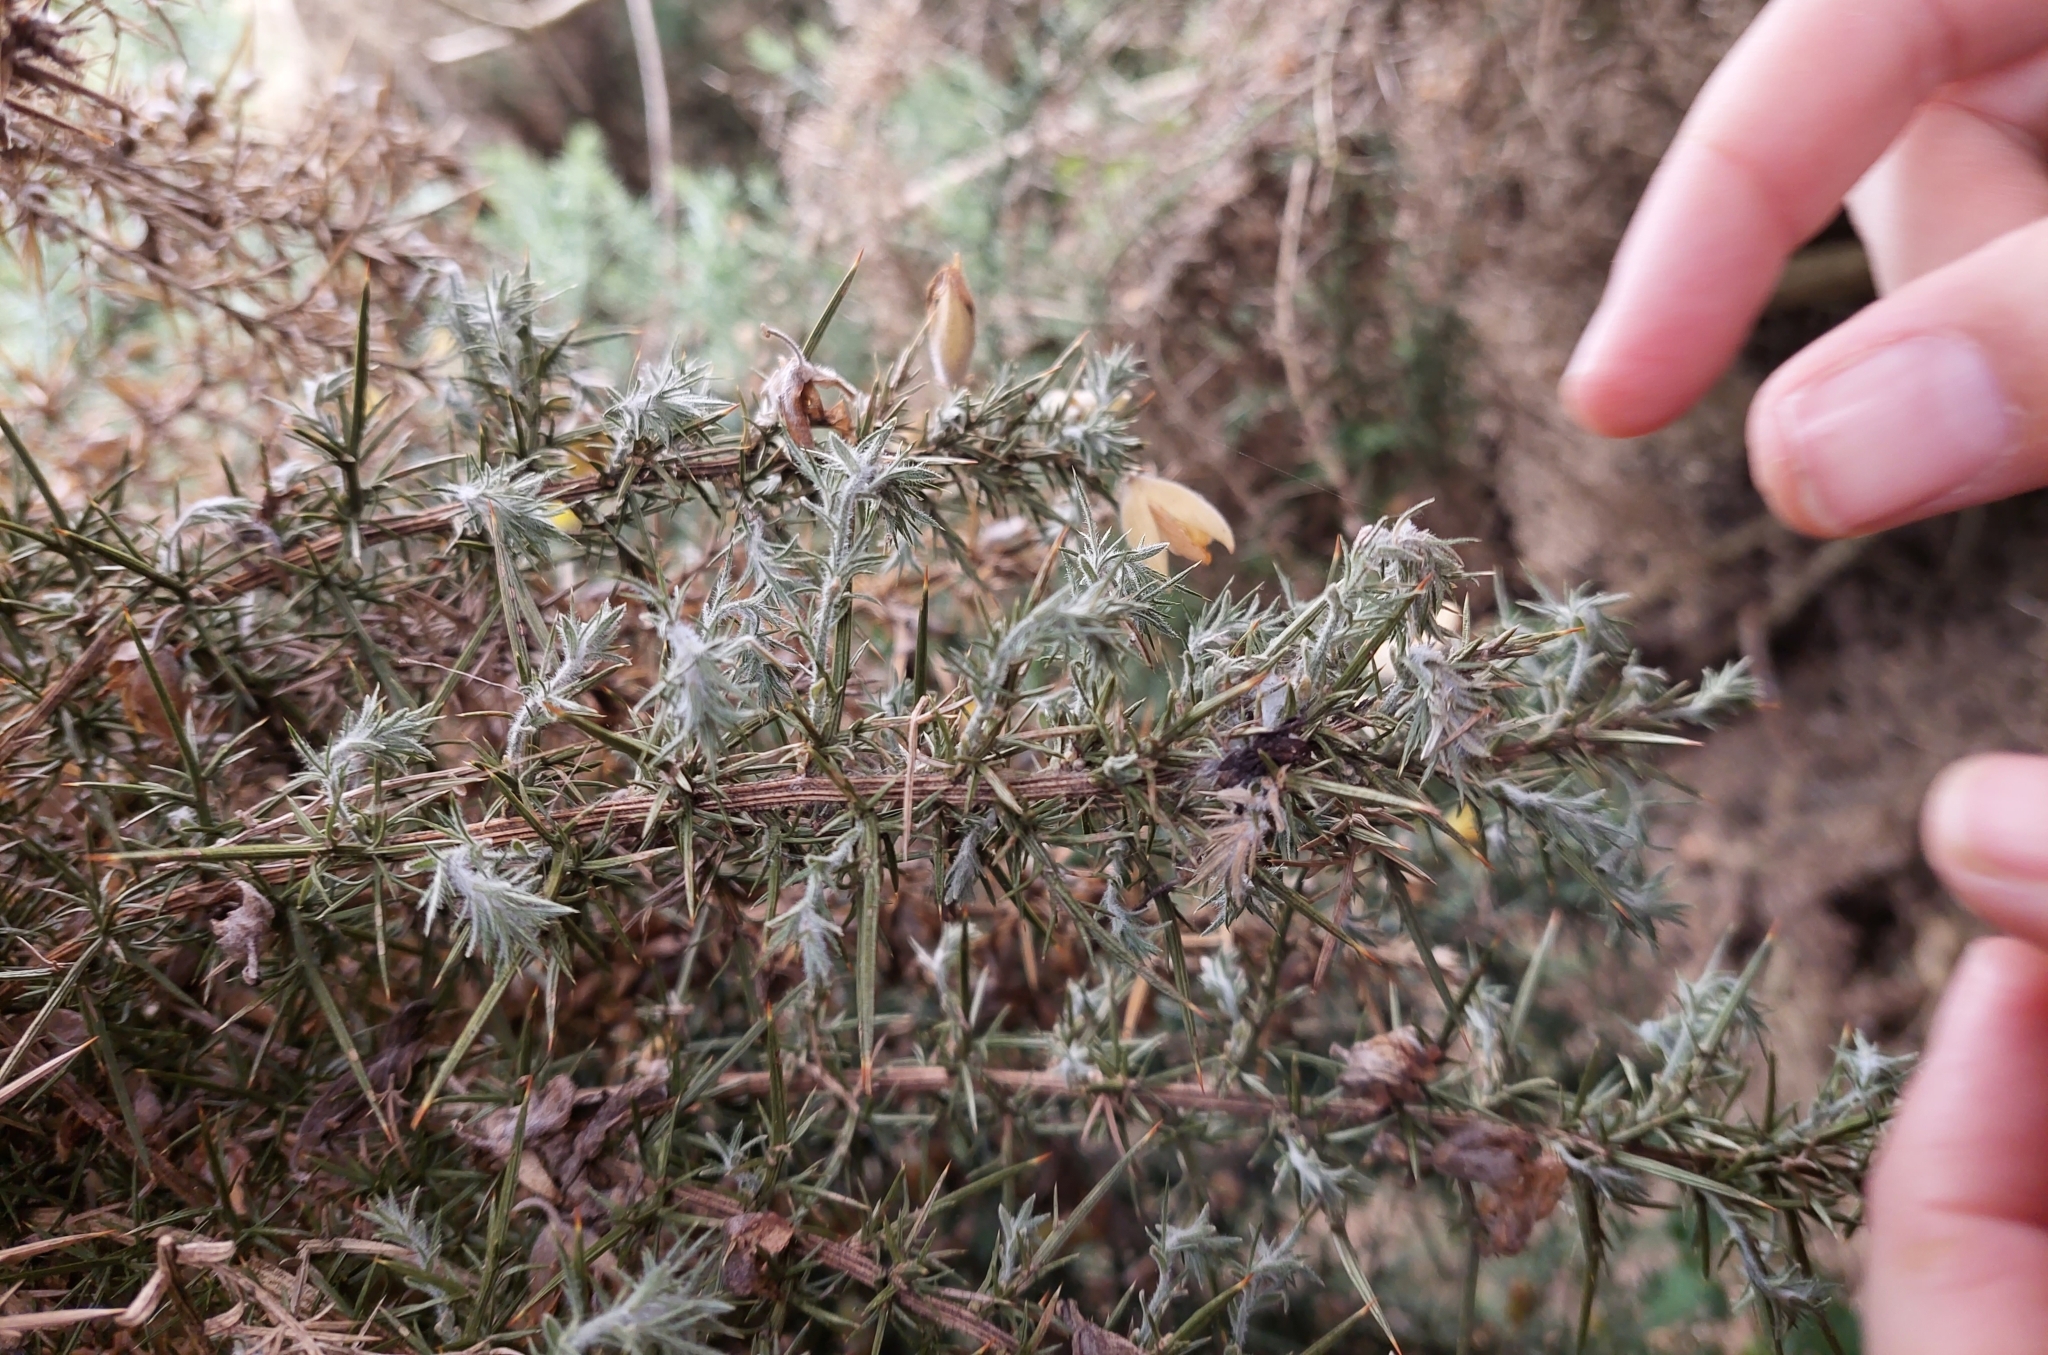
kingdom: Animalia
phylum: Arthropoda
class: Insecta
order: Lepidoptera
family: Depressariidae
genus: Agonopterix
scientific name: Agonopterix
